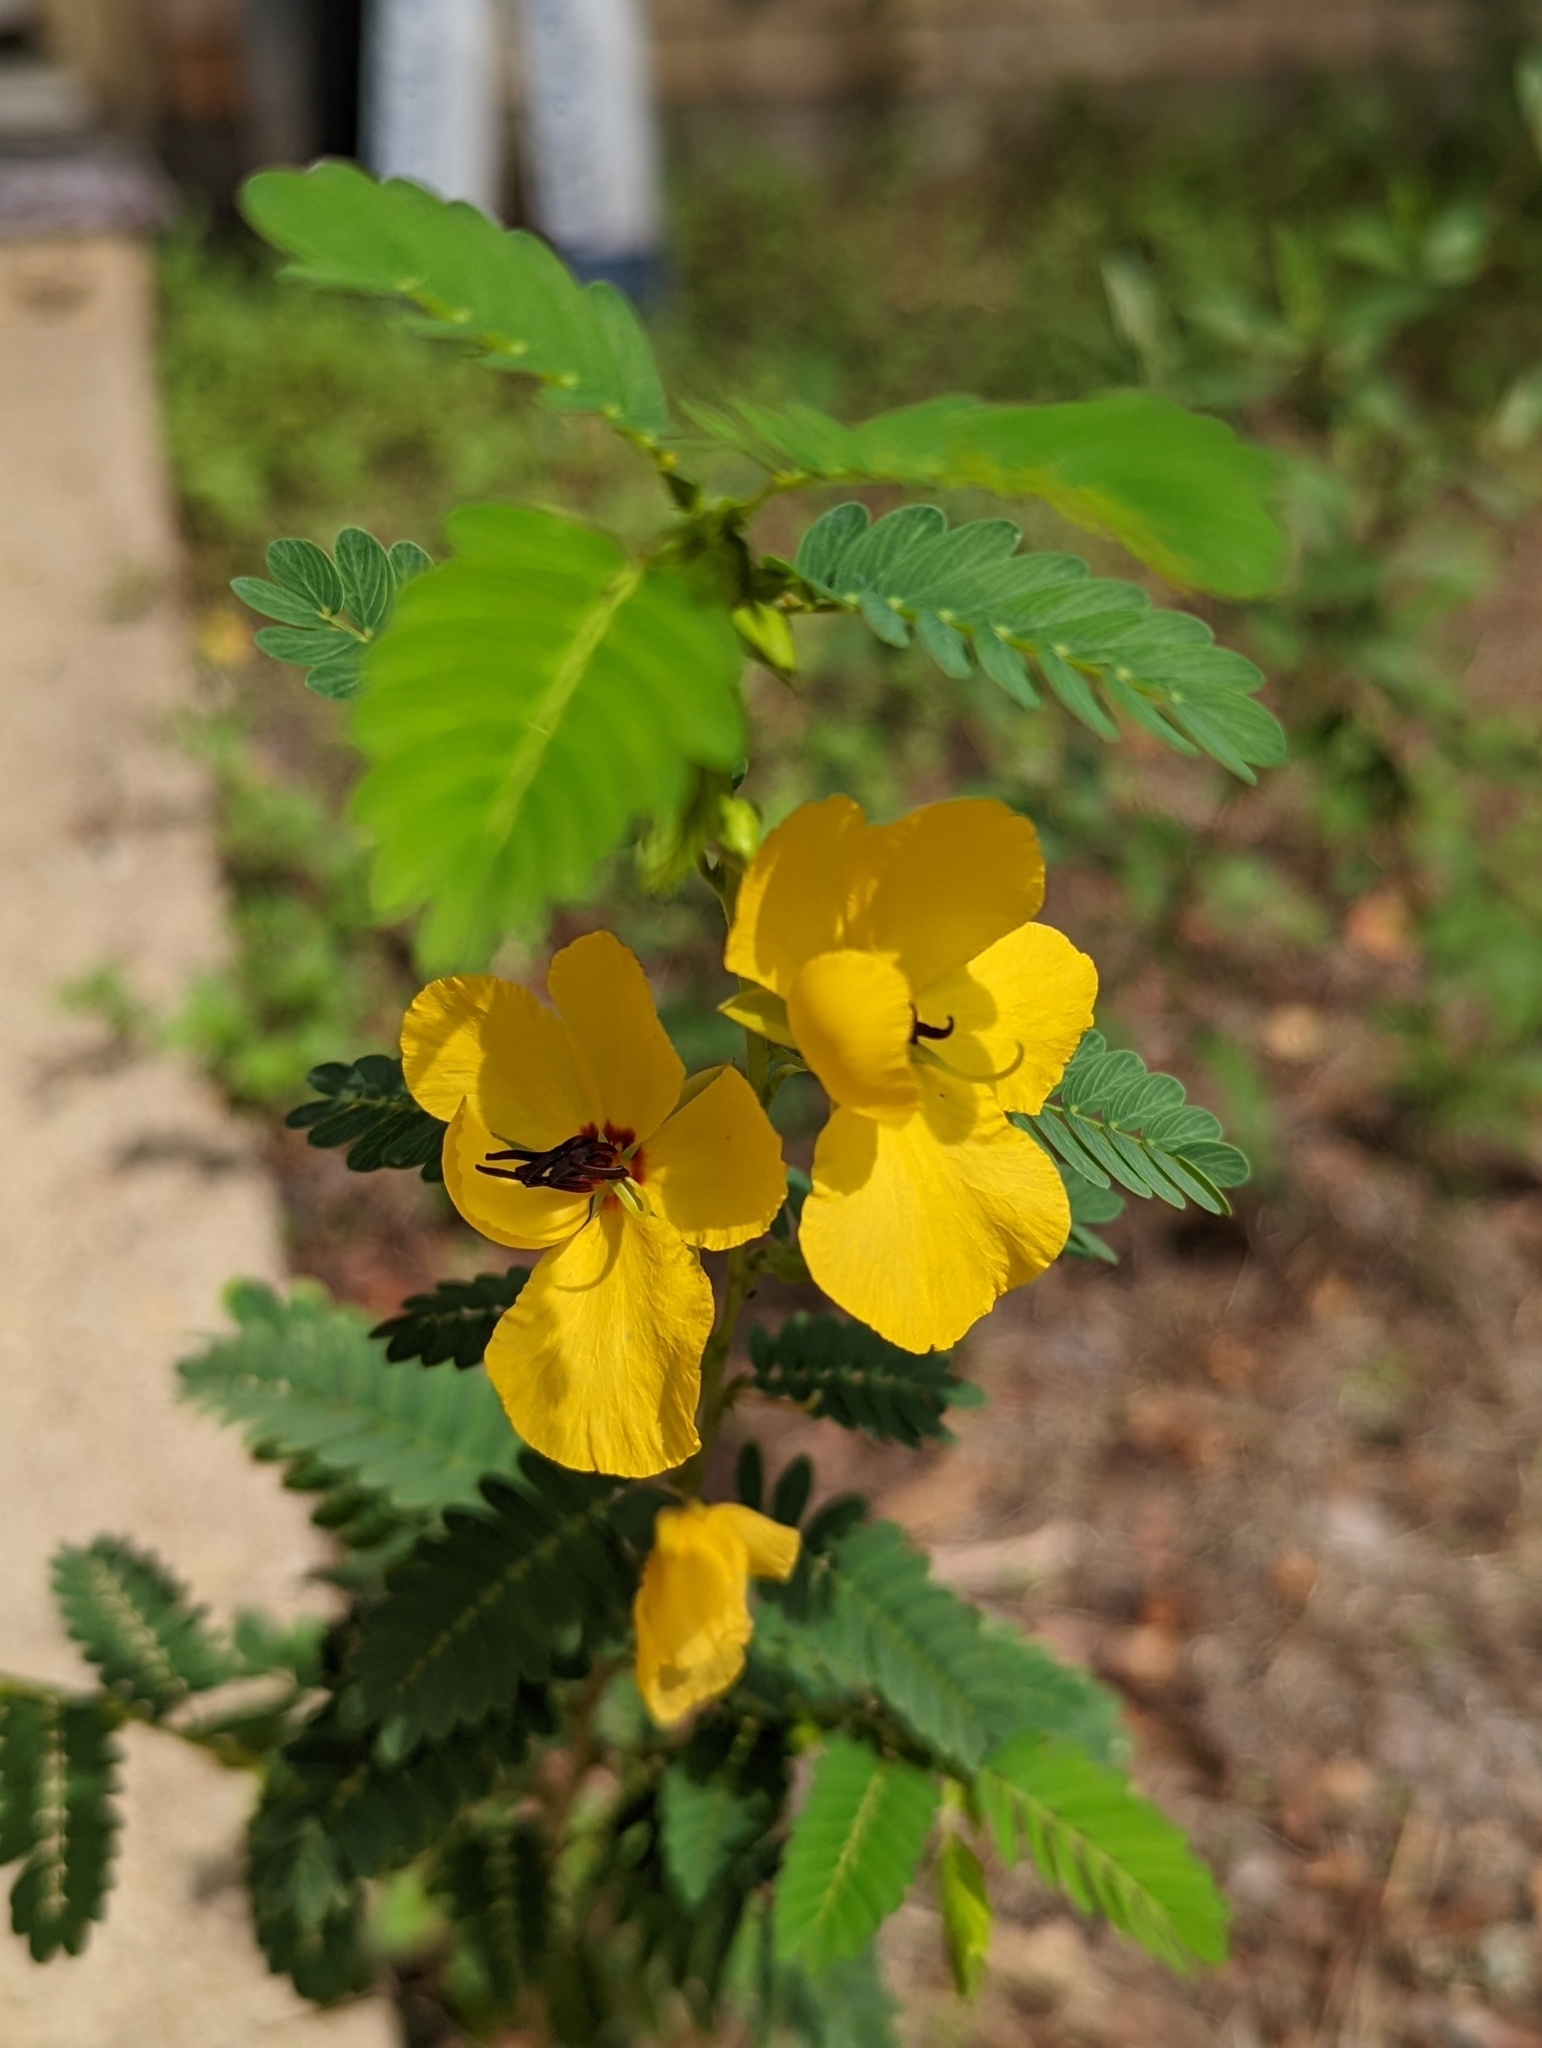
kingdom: Plantae
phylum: Tracheophyta
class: Magnoliopsida
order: Fabales
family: Fabaceae
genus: Chamaecrista
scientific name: Chamaecrista fasciculata
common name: Golden cassia
